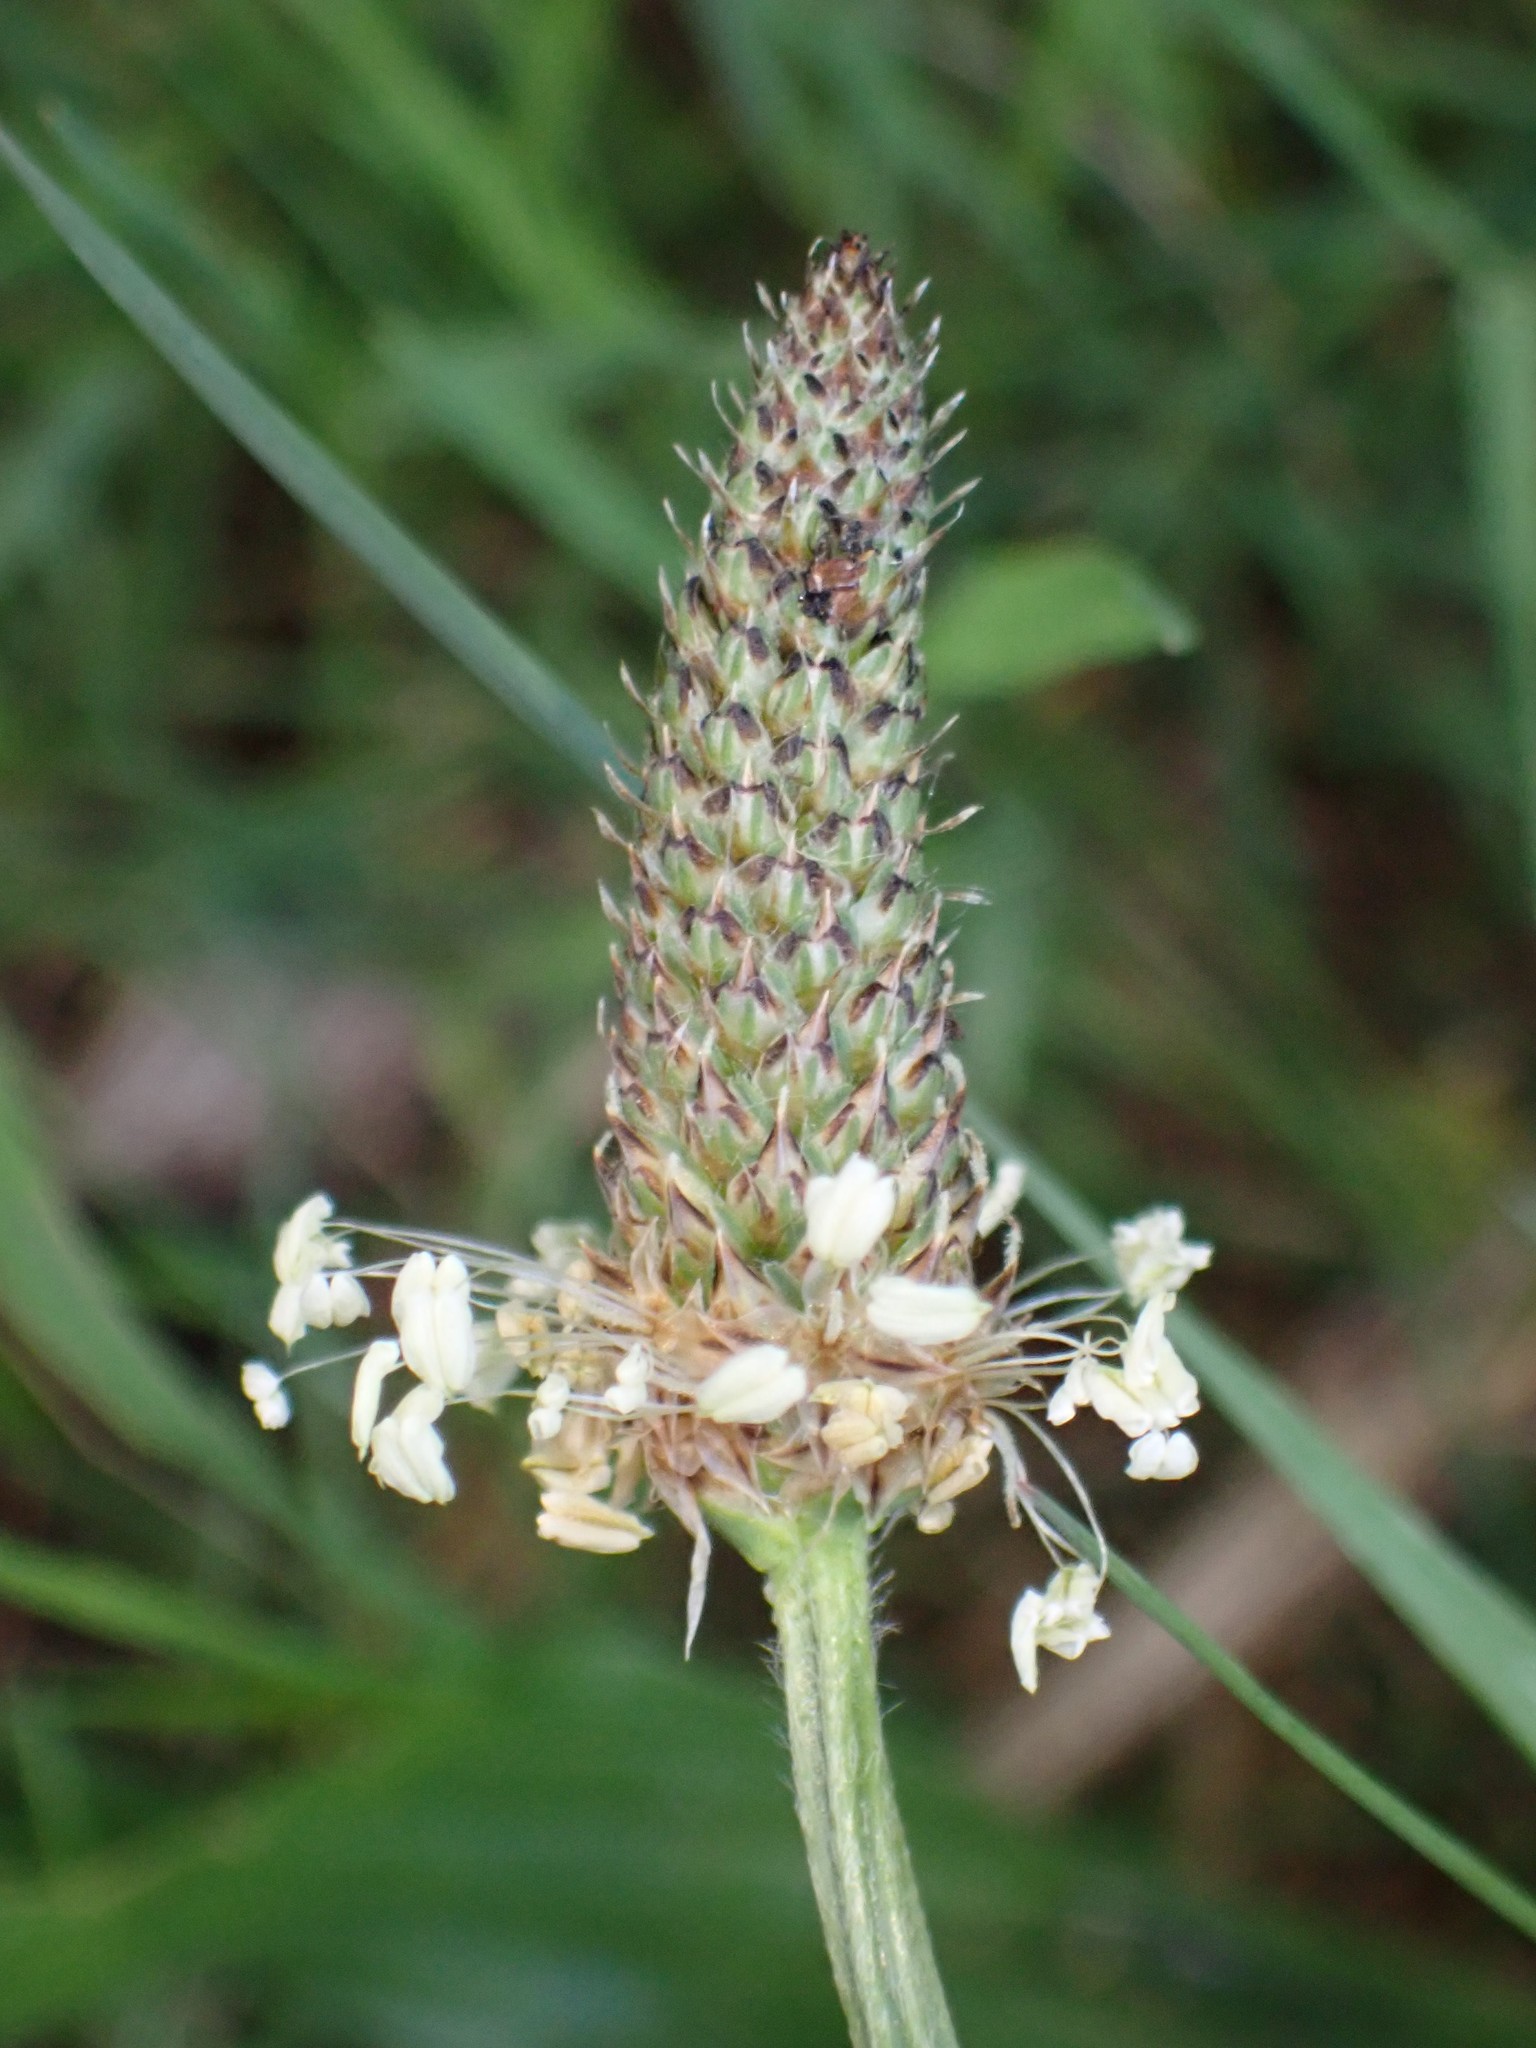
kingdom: Plantae
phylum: Tracheophyta
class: Magnoliopsida
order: Lamiales
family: Plantaginaceae
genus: Plantago
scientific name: Plantago lanceolata
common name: Ribwort plantain
